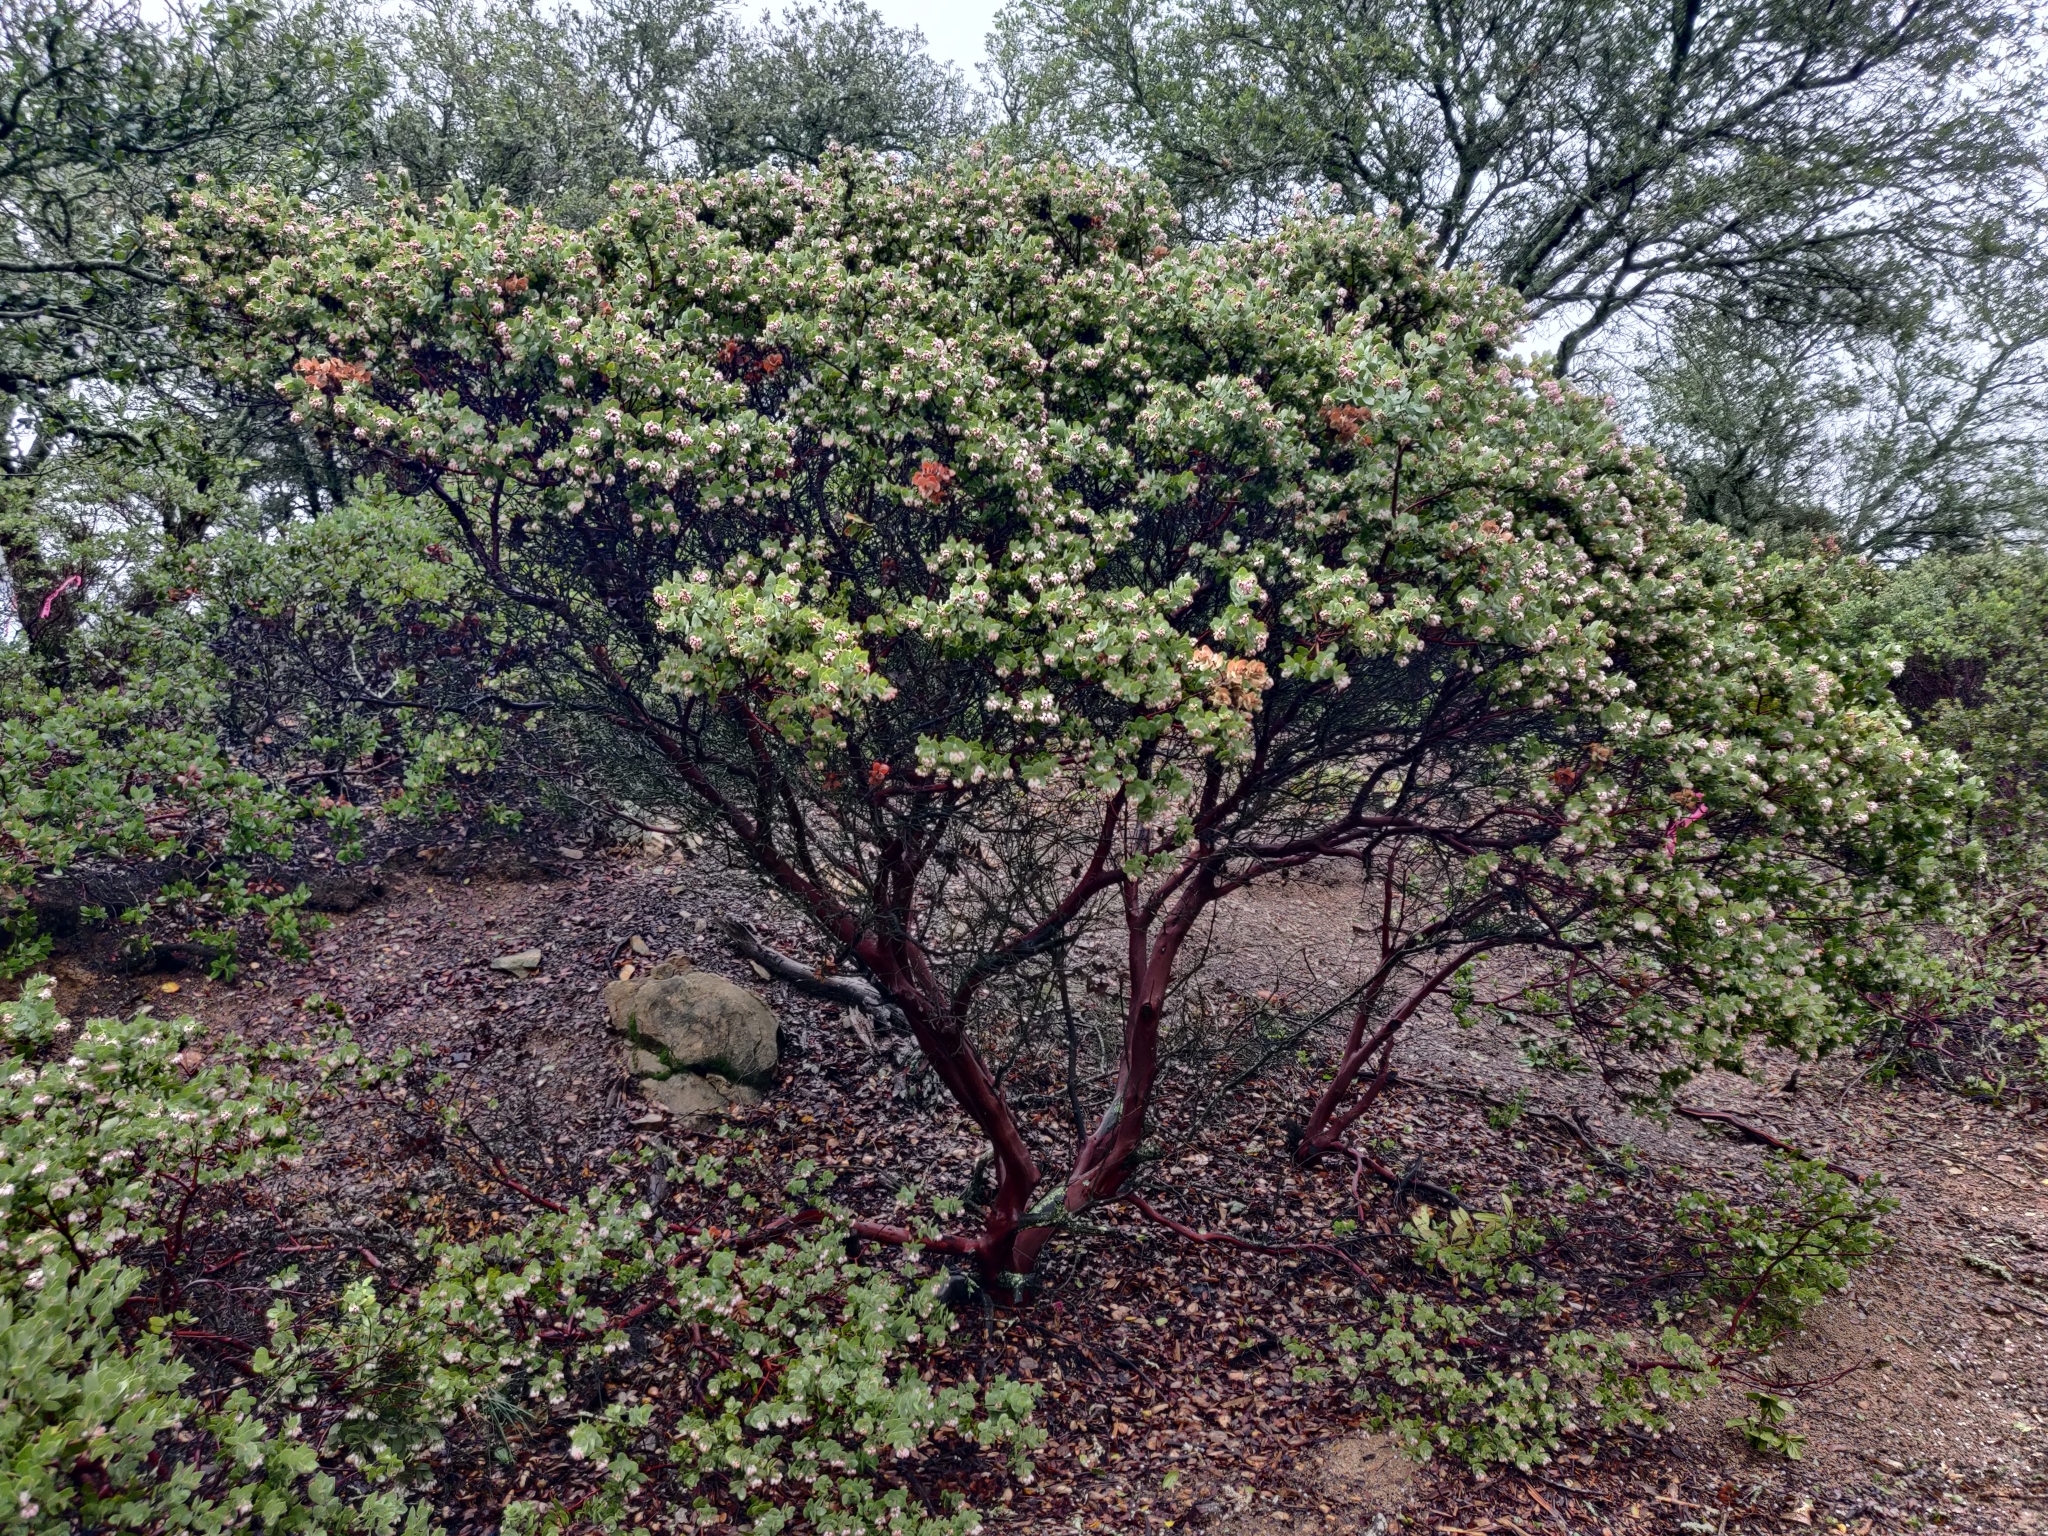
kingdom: Plantae
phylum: Tracheophyta
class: Magnoliopsida
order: Ericales
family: Ericaceae
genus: Arctostaphylos
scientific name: Arctostaphylos auriculata
